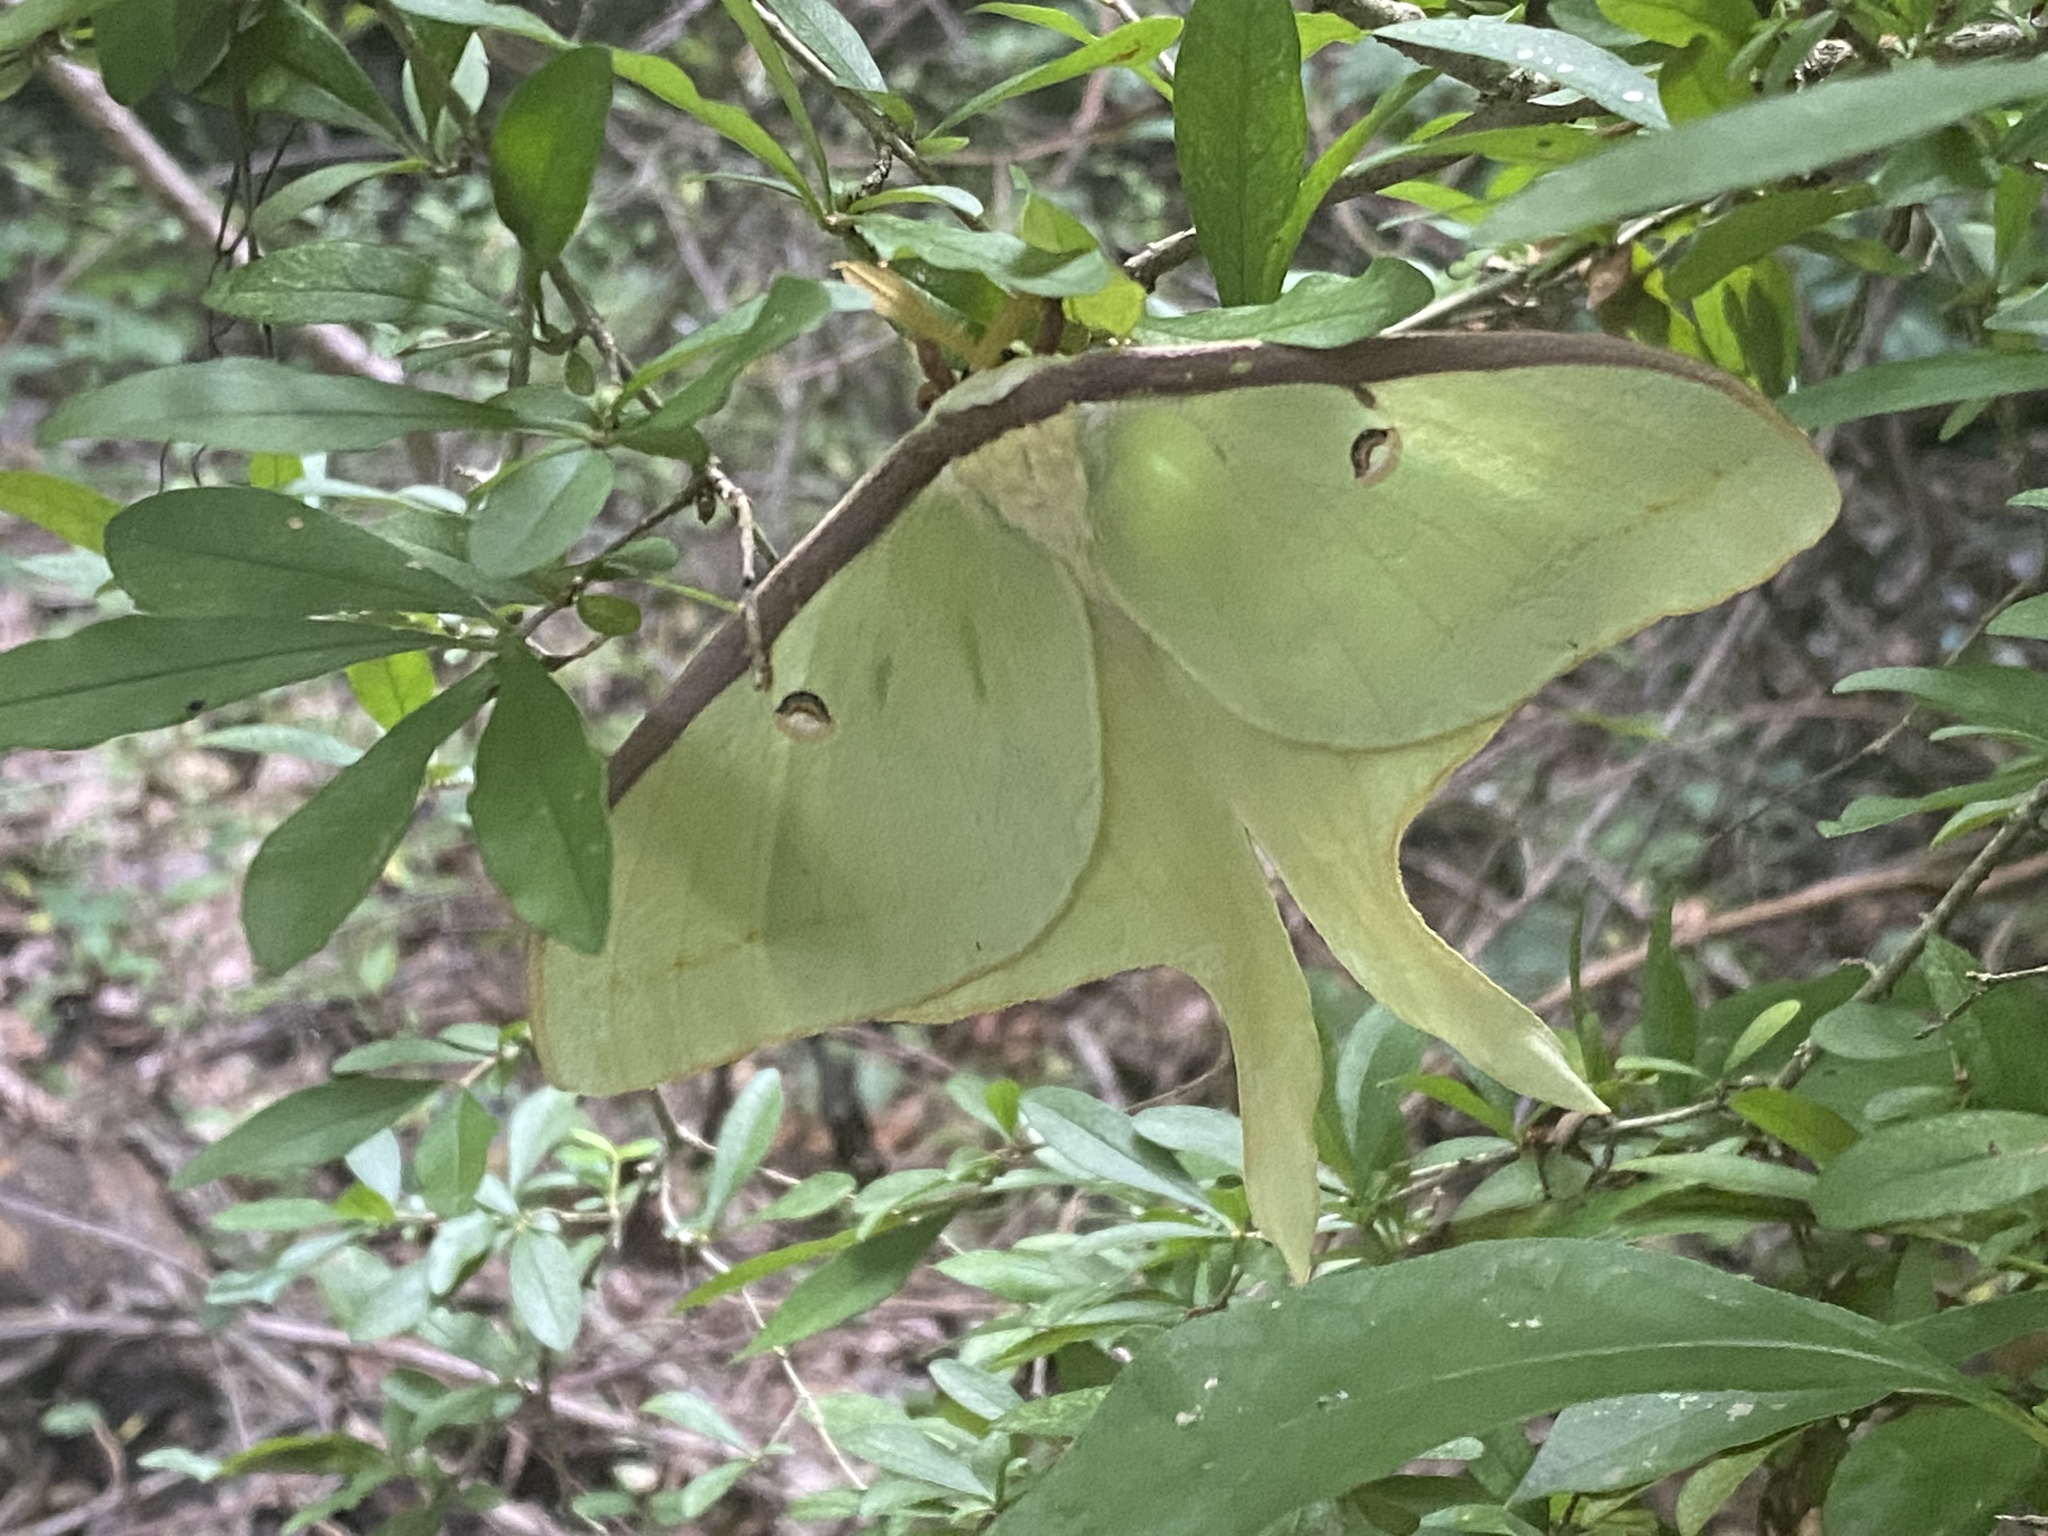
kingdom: Animalia
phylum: Arthropoda
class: Insecta
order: Lepidoptera
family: Saturniidae
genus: Actias
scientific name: Actias luna
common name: Luna moth
